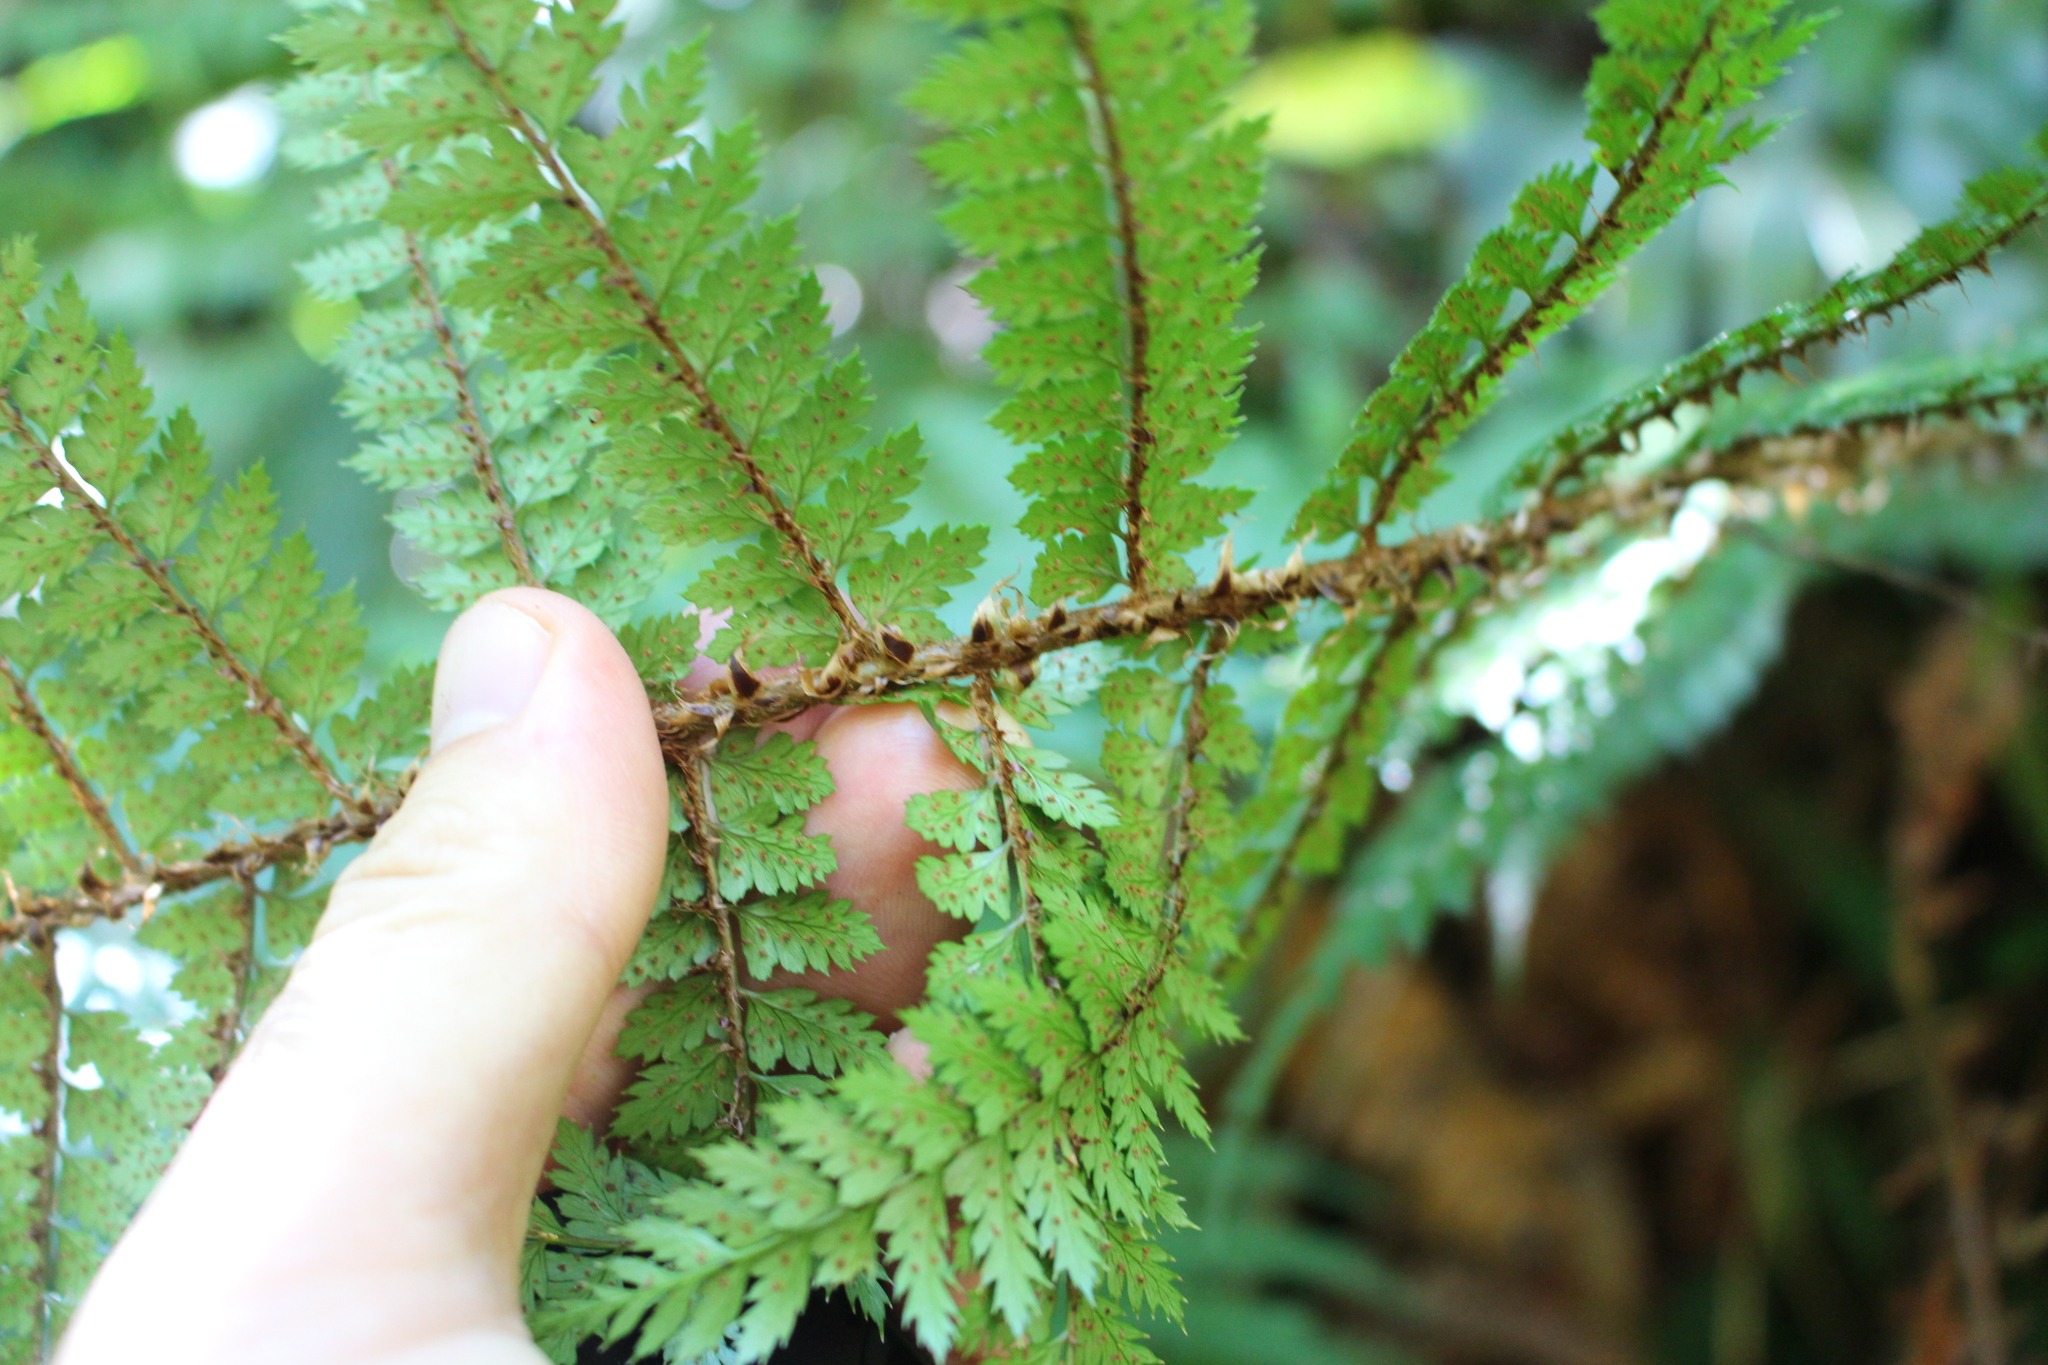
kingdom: Plantae
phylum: Tracheophyta
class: Polypodiopsida
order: Polypodiales
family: Dryopteridaceae
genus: Polystichum
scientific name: Polystichum vestitum
